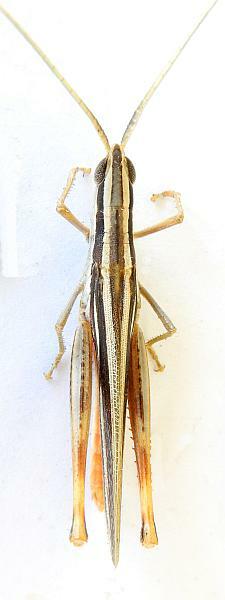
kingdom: Animalia
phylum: Arthropoda
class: Insecta
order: Orthoptera
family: Acrididae
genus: Mermiria
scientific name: Mermiria texana
